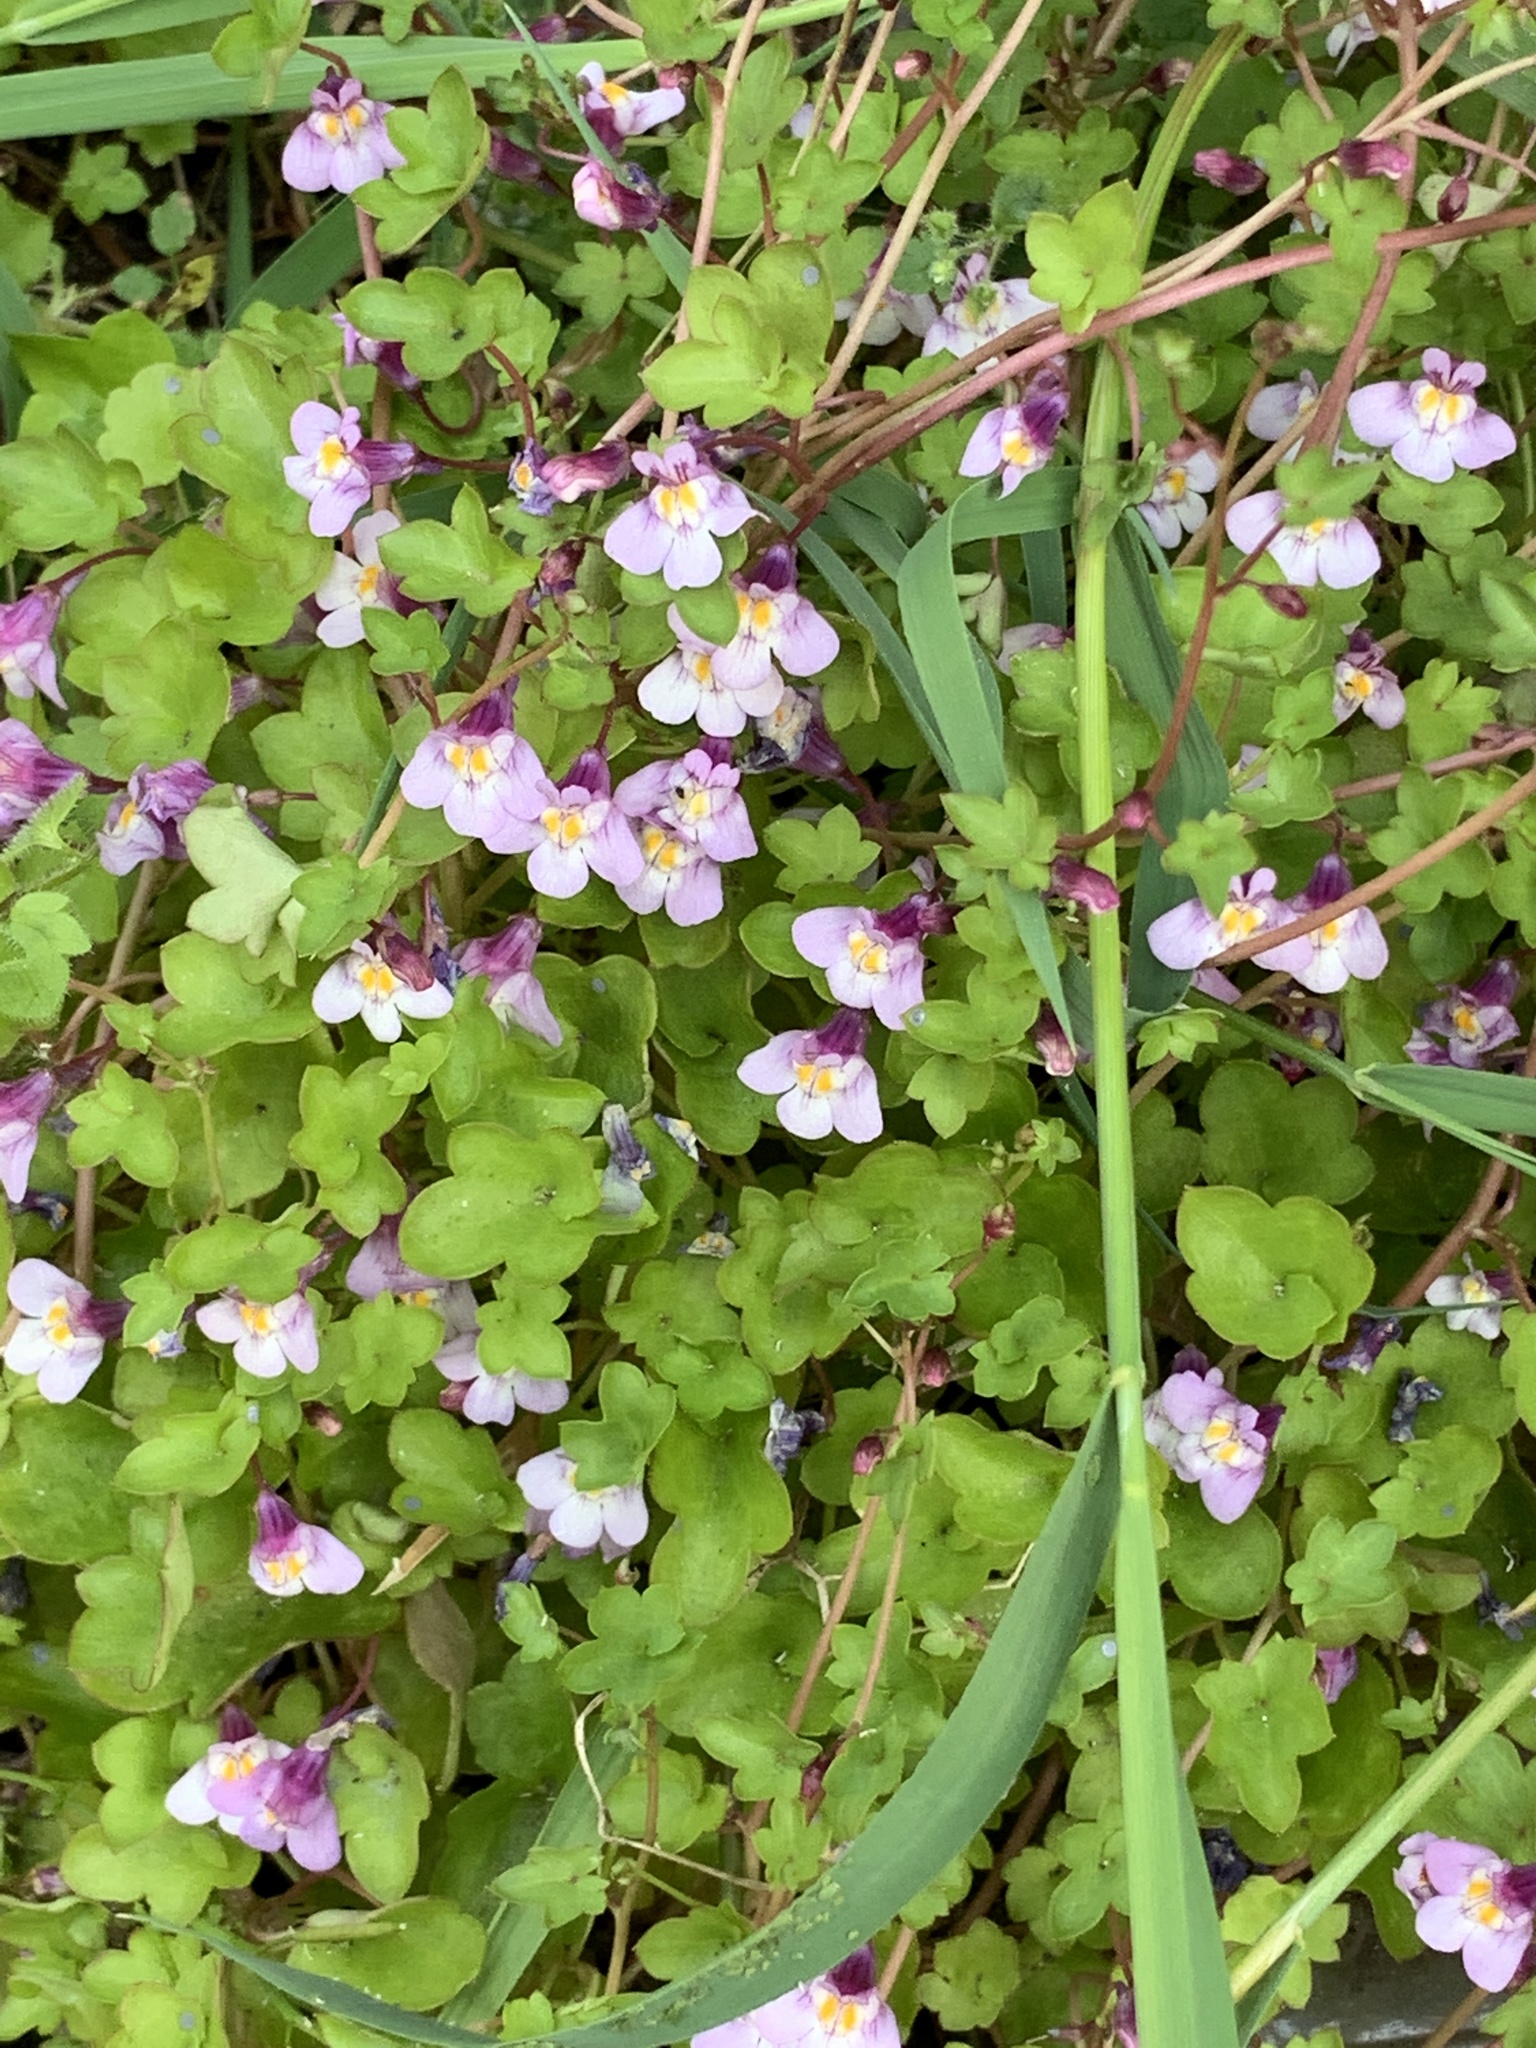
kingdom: Plantae
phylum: Tracheophyta
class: Magnoliopsida
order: Lamiales
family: Plantaginaceae
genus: Cymbalaria
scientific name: Cymbalaria muralis
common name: Ivy-leaved toadflax
